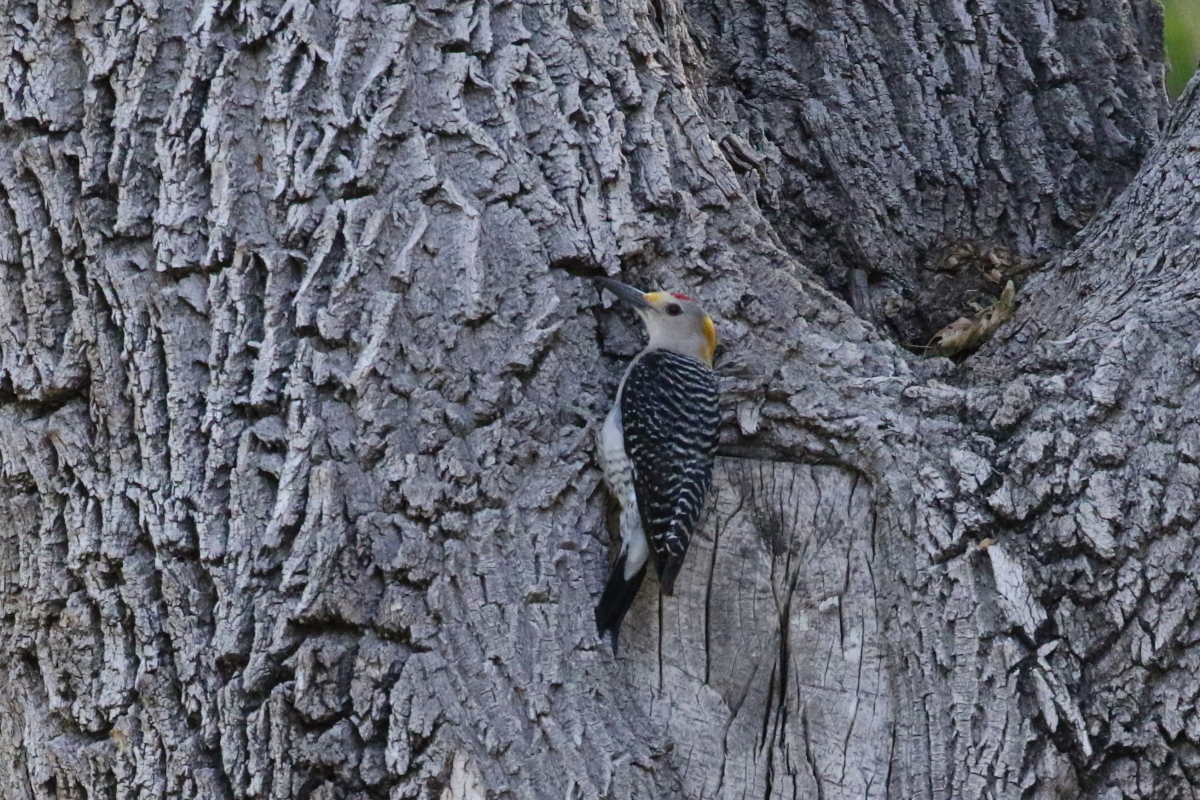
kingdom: Animalia
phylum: Chordata
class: Aves
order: Piciformes
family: Picidae
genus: Melanerpes
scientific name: Melanerpes aurifrons
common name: Golden-fronted woodpecker
